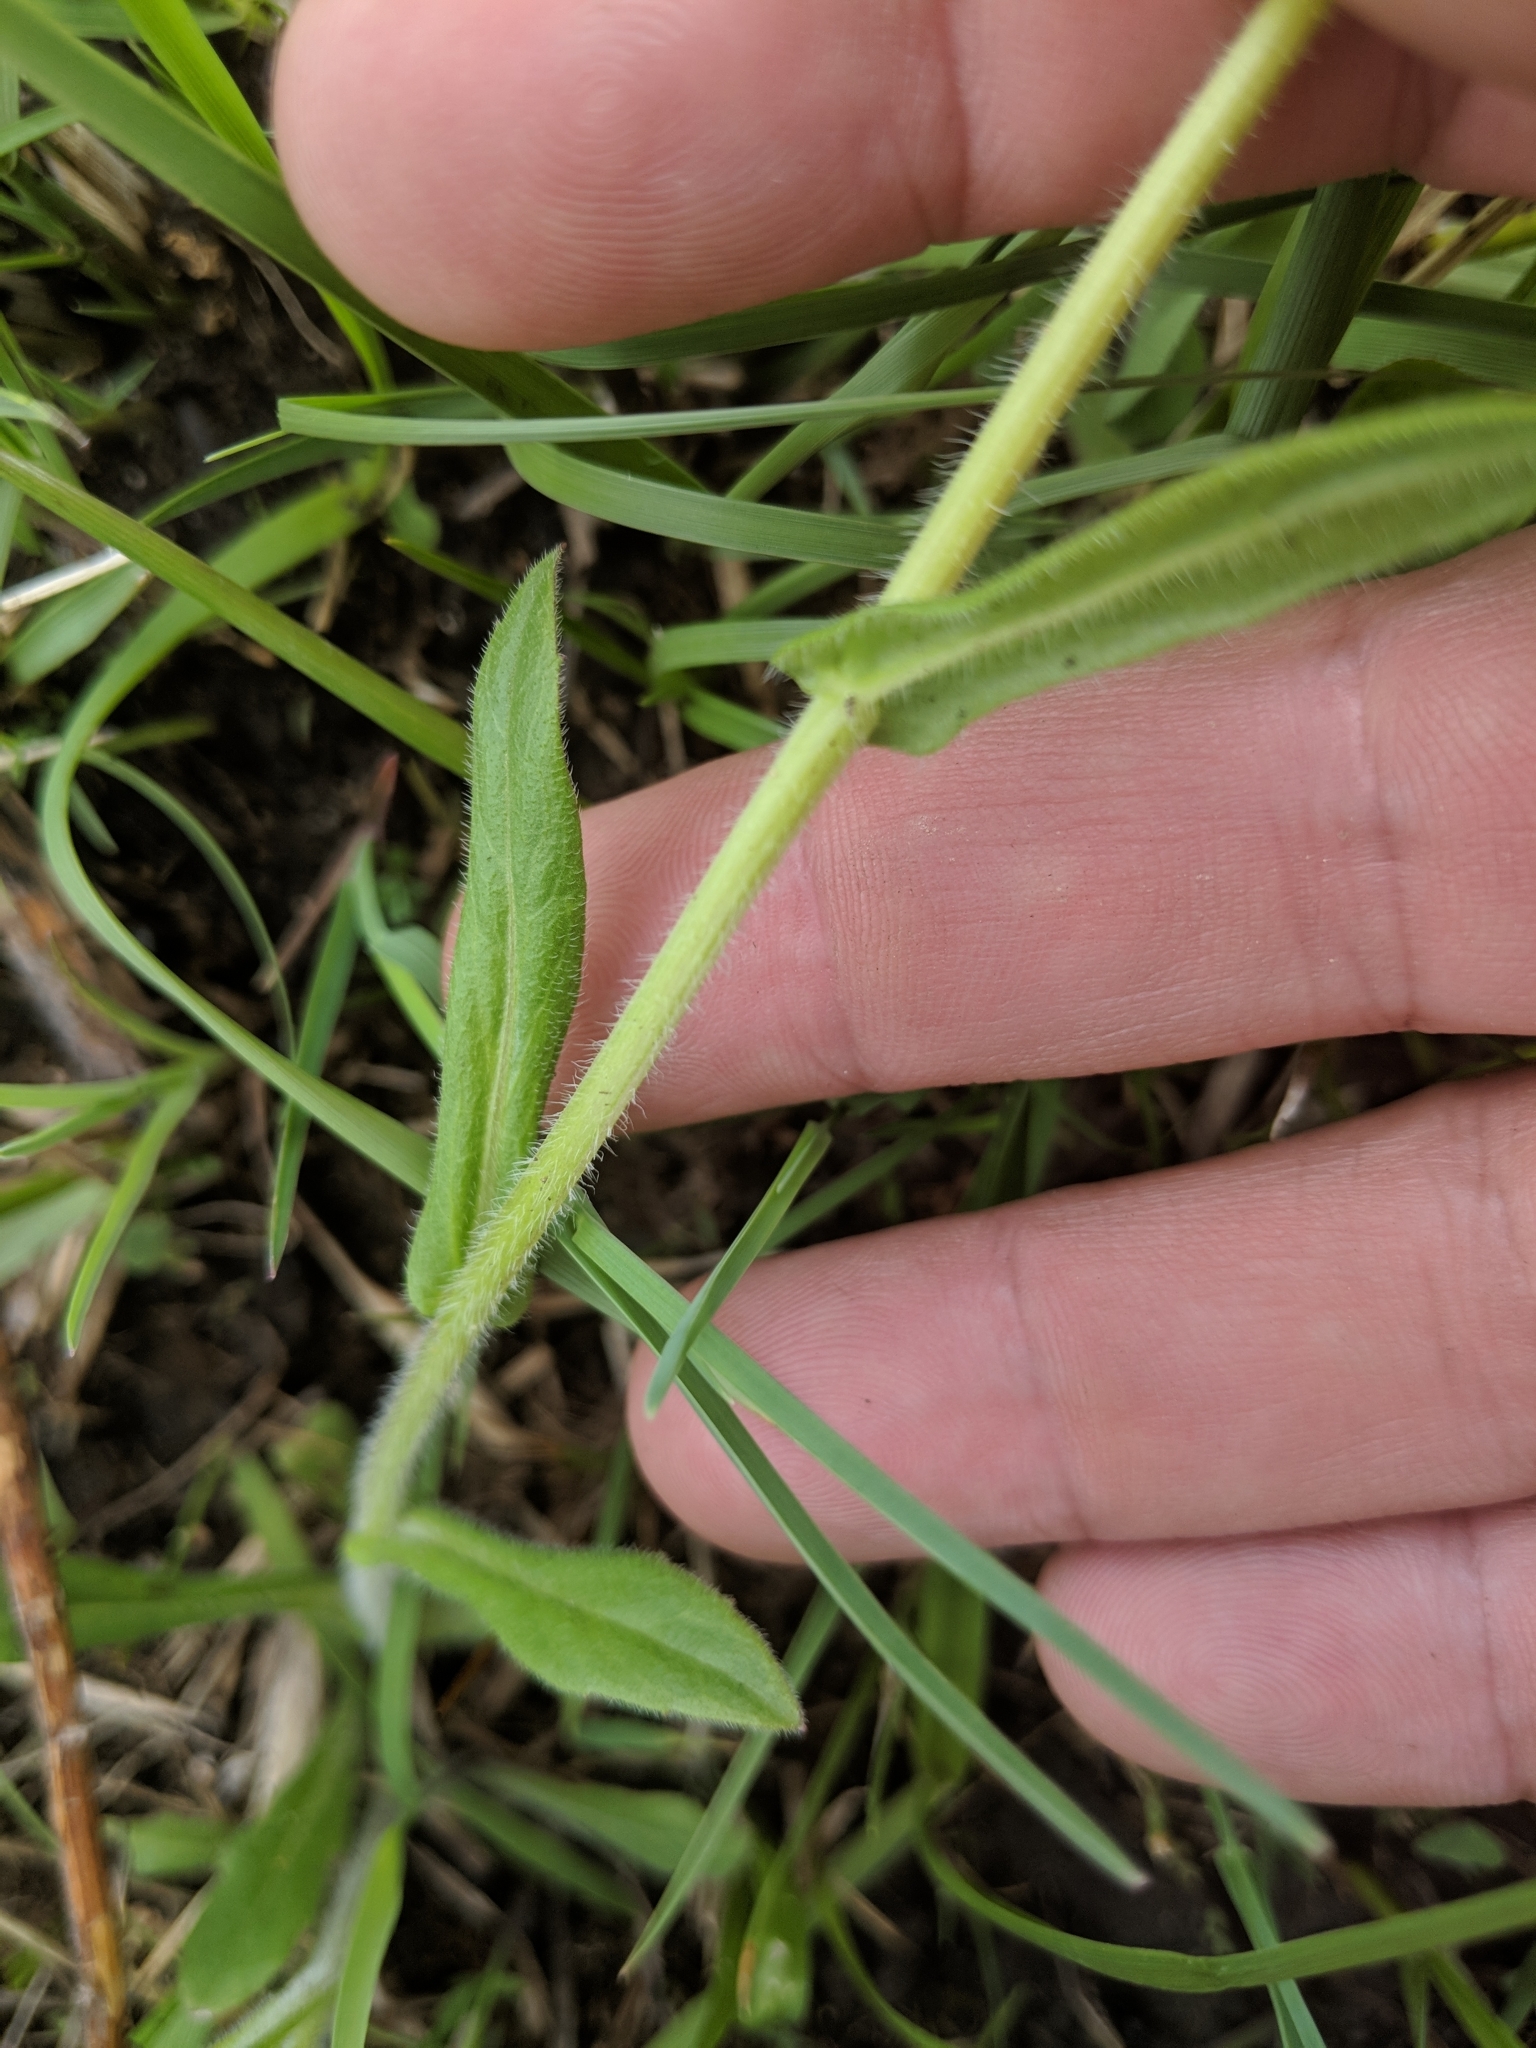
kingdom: Plantae
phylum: Tracheophyta
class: Magnoliopsida
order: Asterales
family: Asteraceae
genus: Erigeron
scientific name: Erigeron philadelphicus
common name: Robin's-plantain
